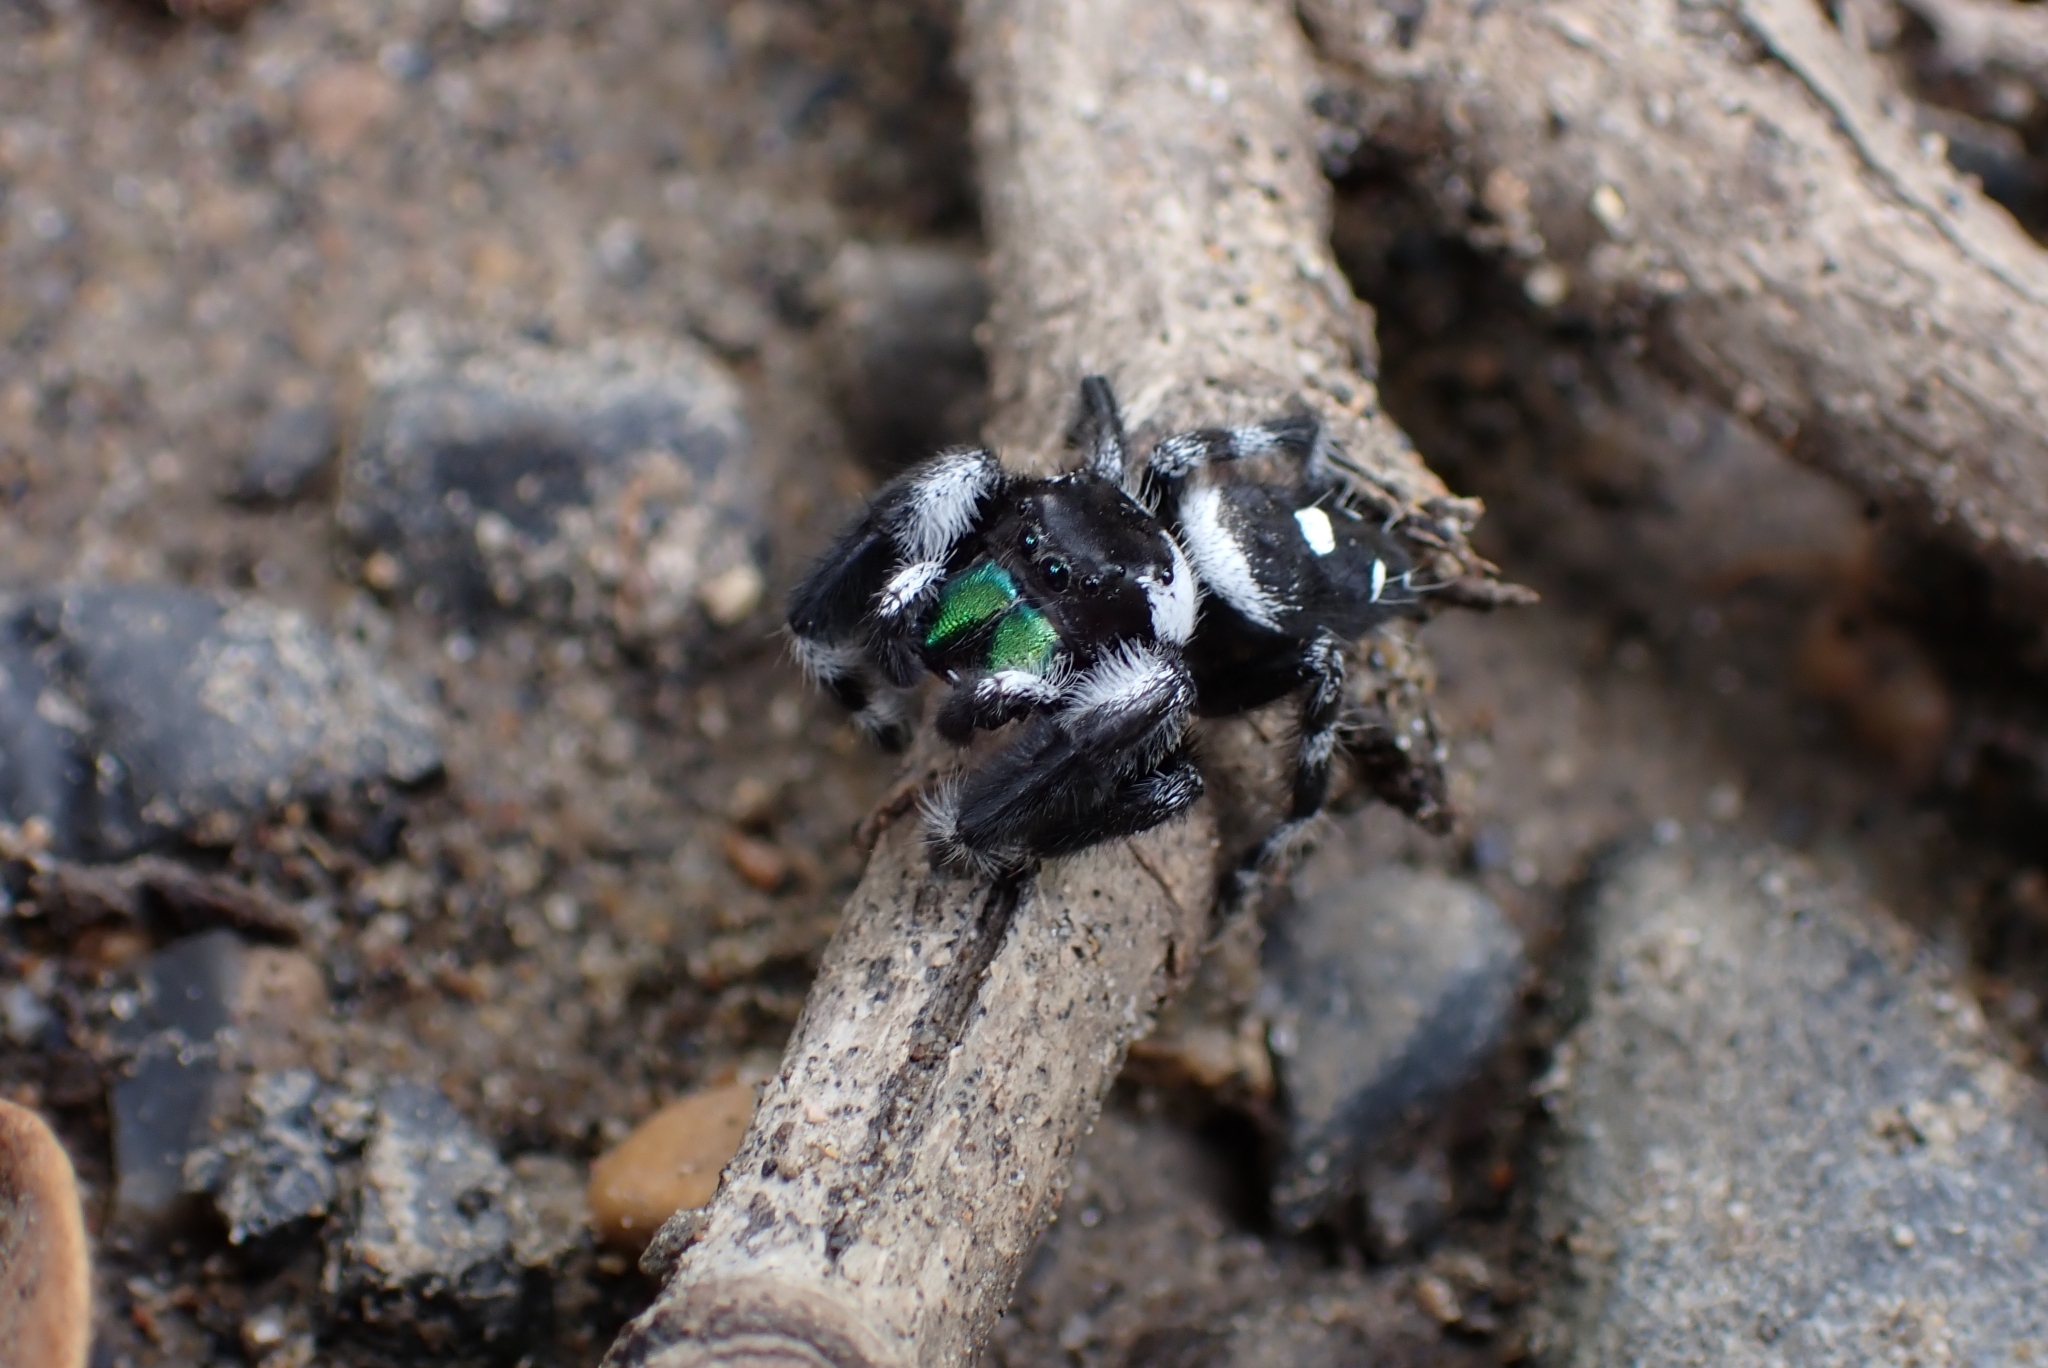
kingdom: Animalia
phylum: Arthropoda
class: Arachnida
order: Araneae
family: Salticidae
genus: Phidippus
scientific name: Phidippus audax
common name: Bold jumper
